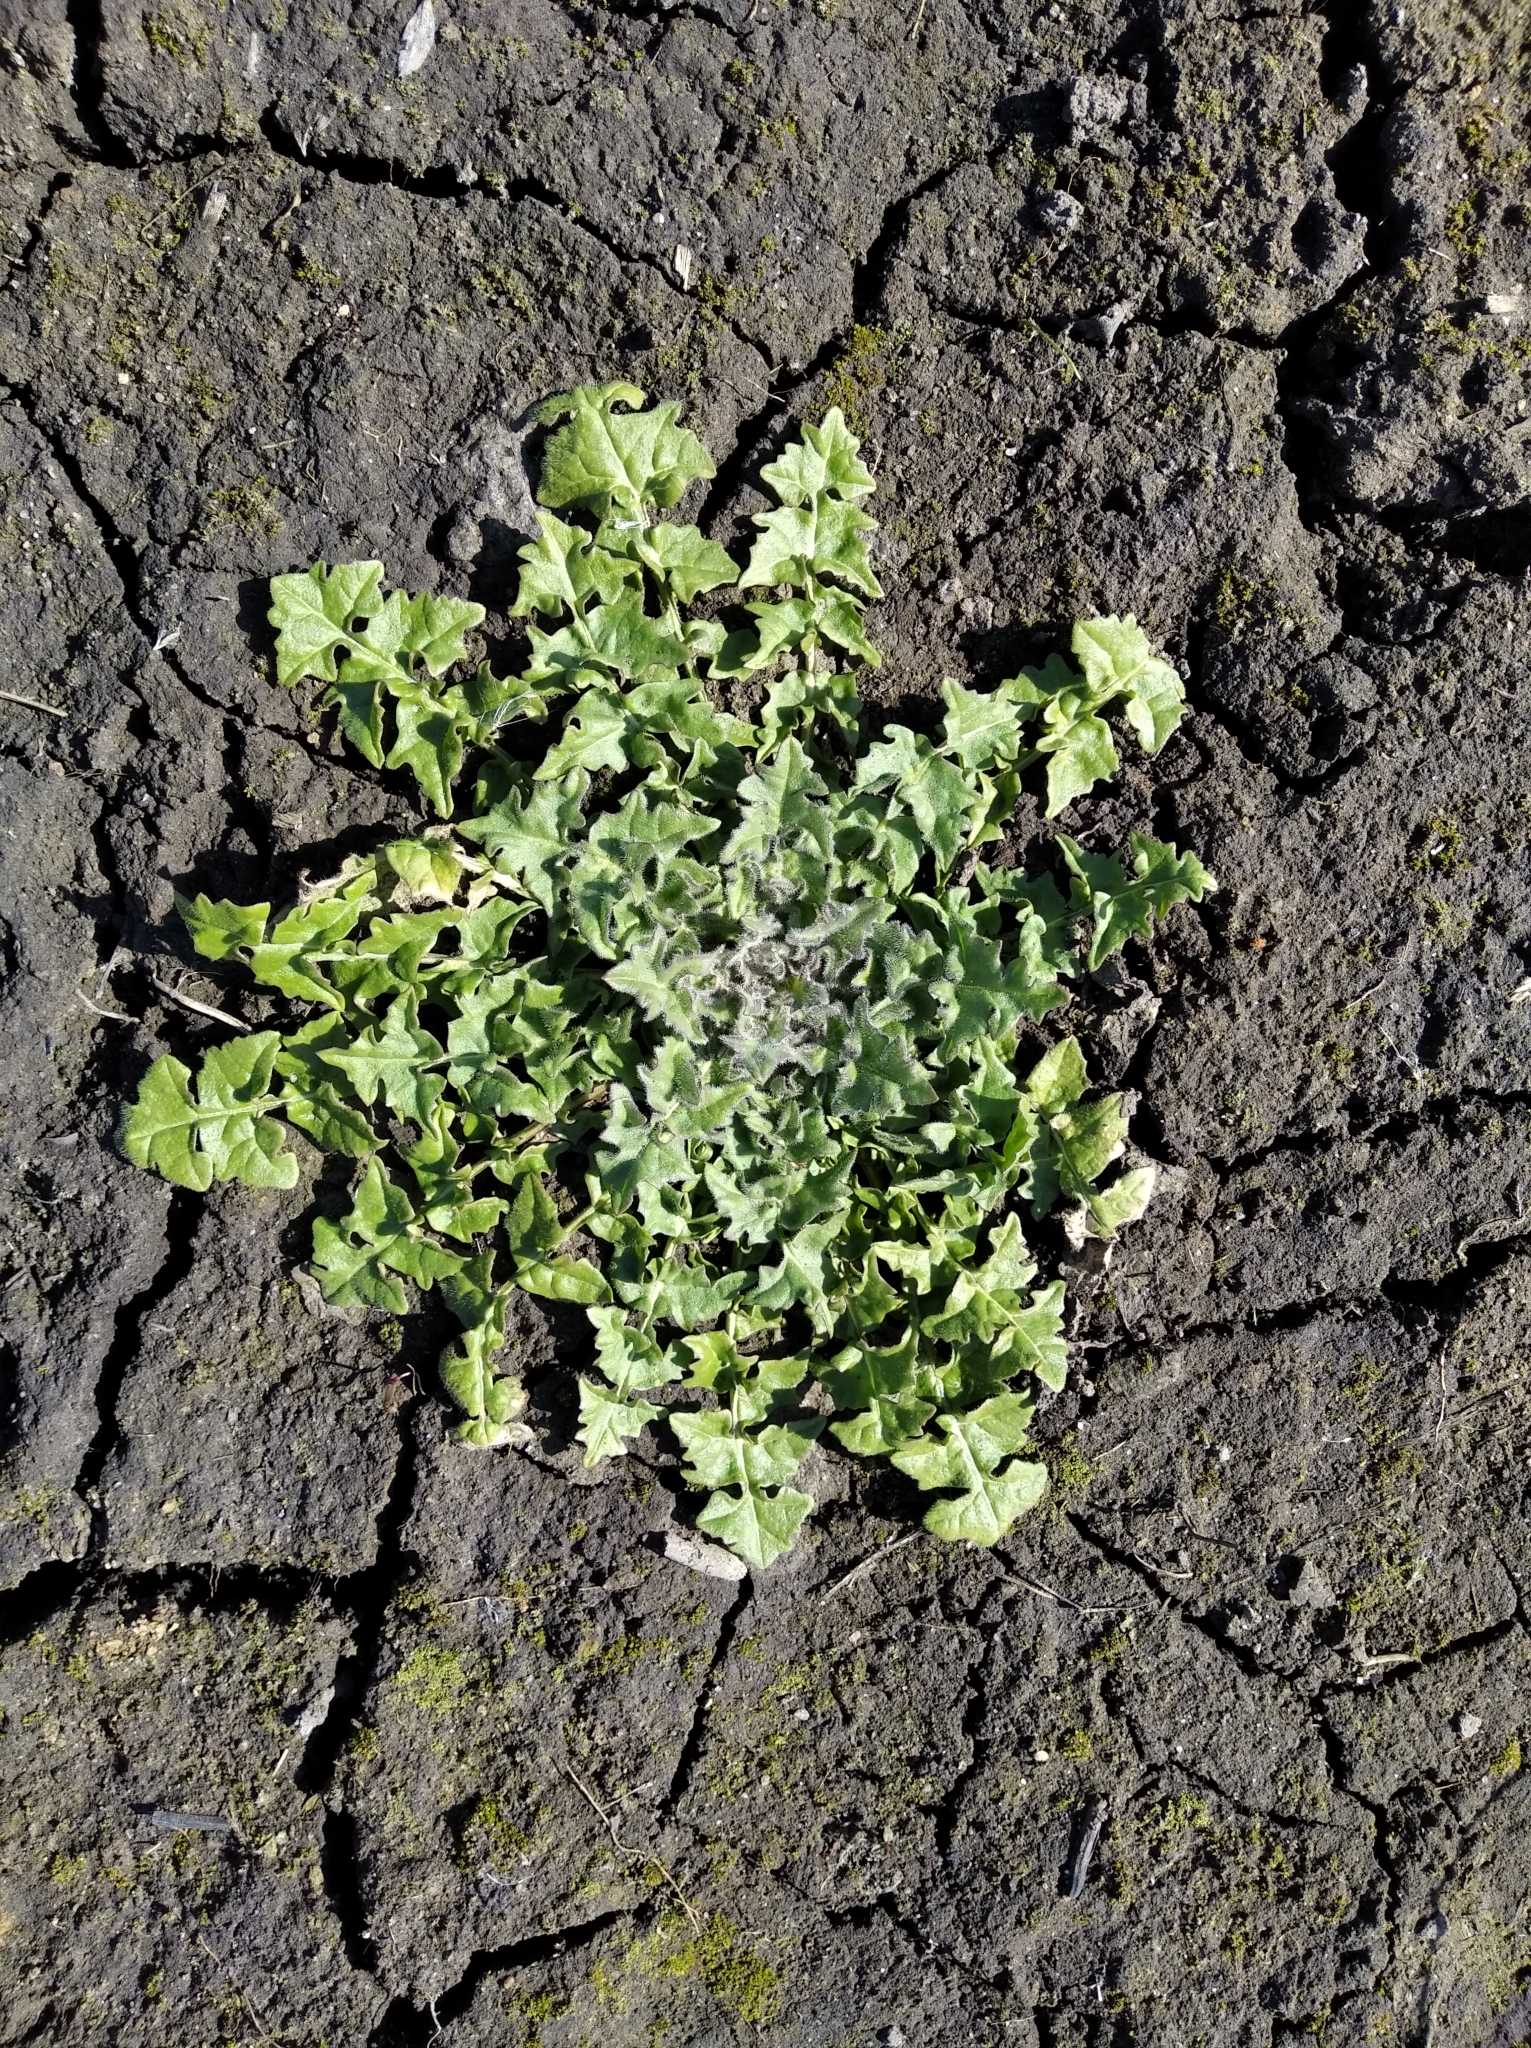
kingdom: Plantae
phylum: Tracheophyta
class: Magnoliopsida
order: Brassicales
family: Brassicaceae
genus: Sisymbrium
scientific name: Sisymbrium loeselii
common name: False london-rocket
